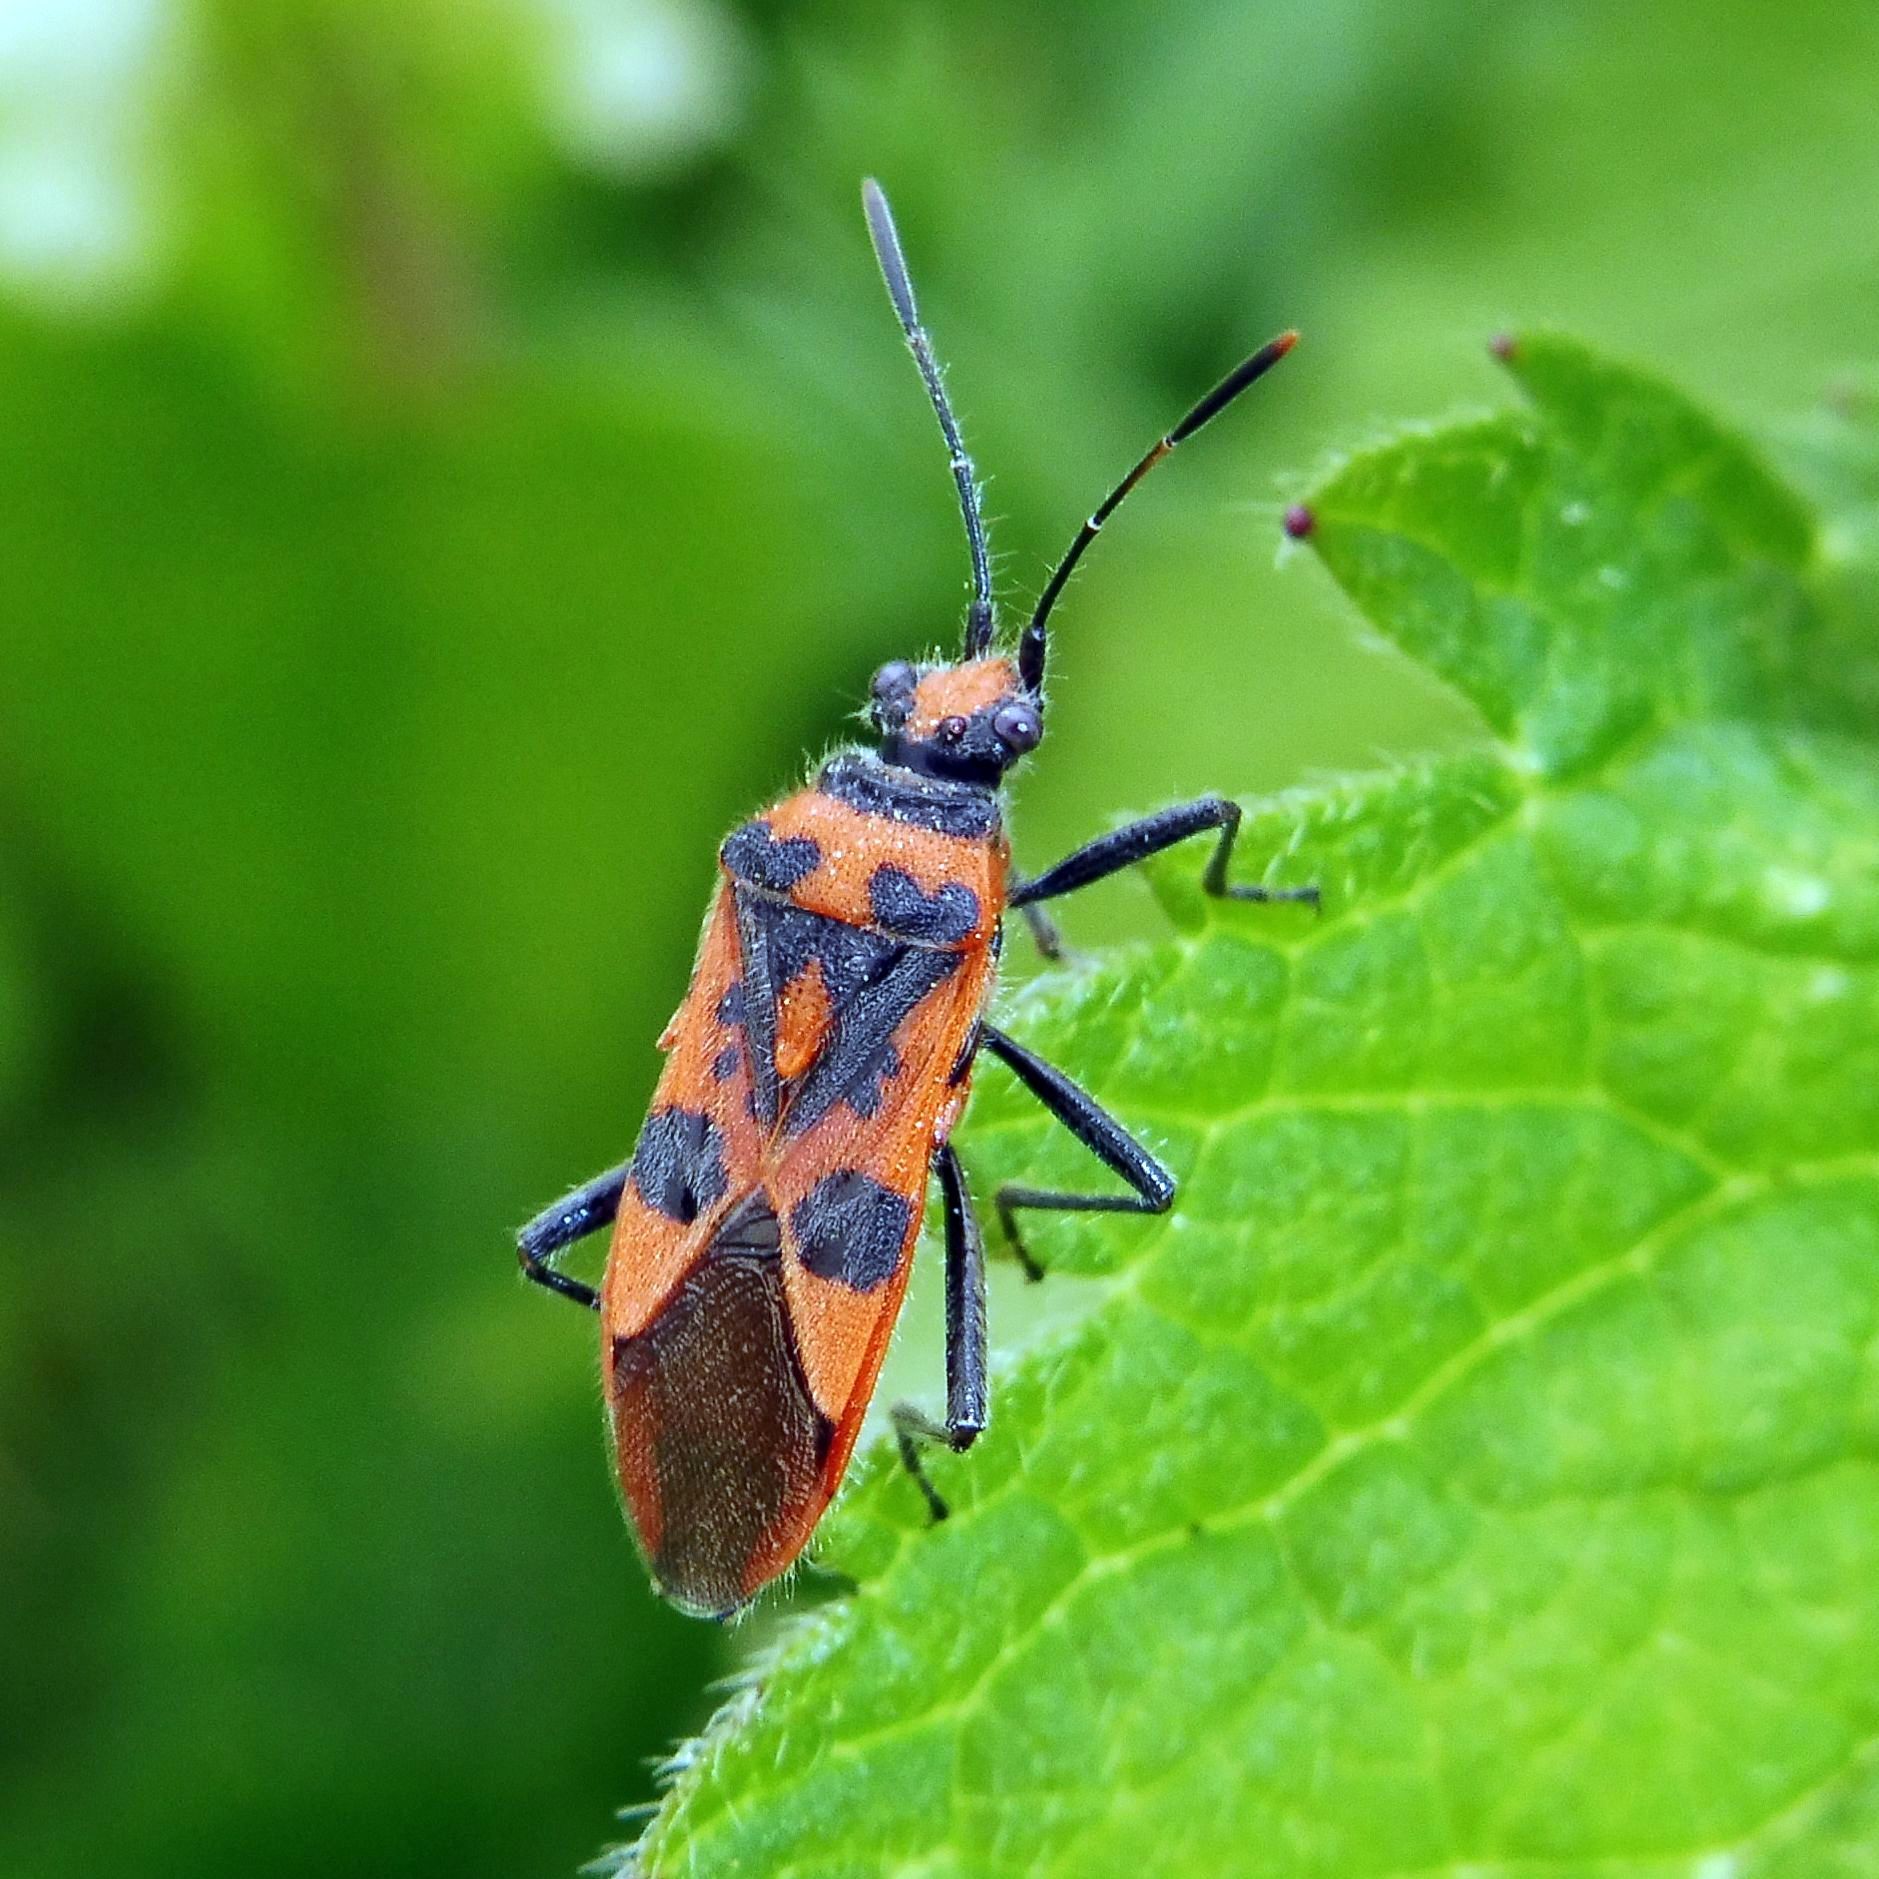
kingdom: Animalia
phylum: Arthropoda
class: Insecta
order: Hemiptera
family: Rhopalidae
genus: Corizus
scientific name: Corizus hyoscyami
